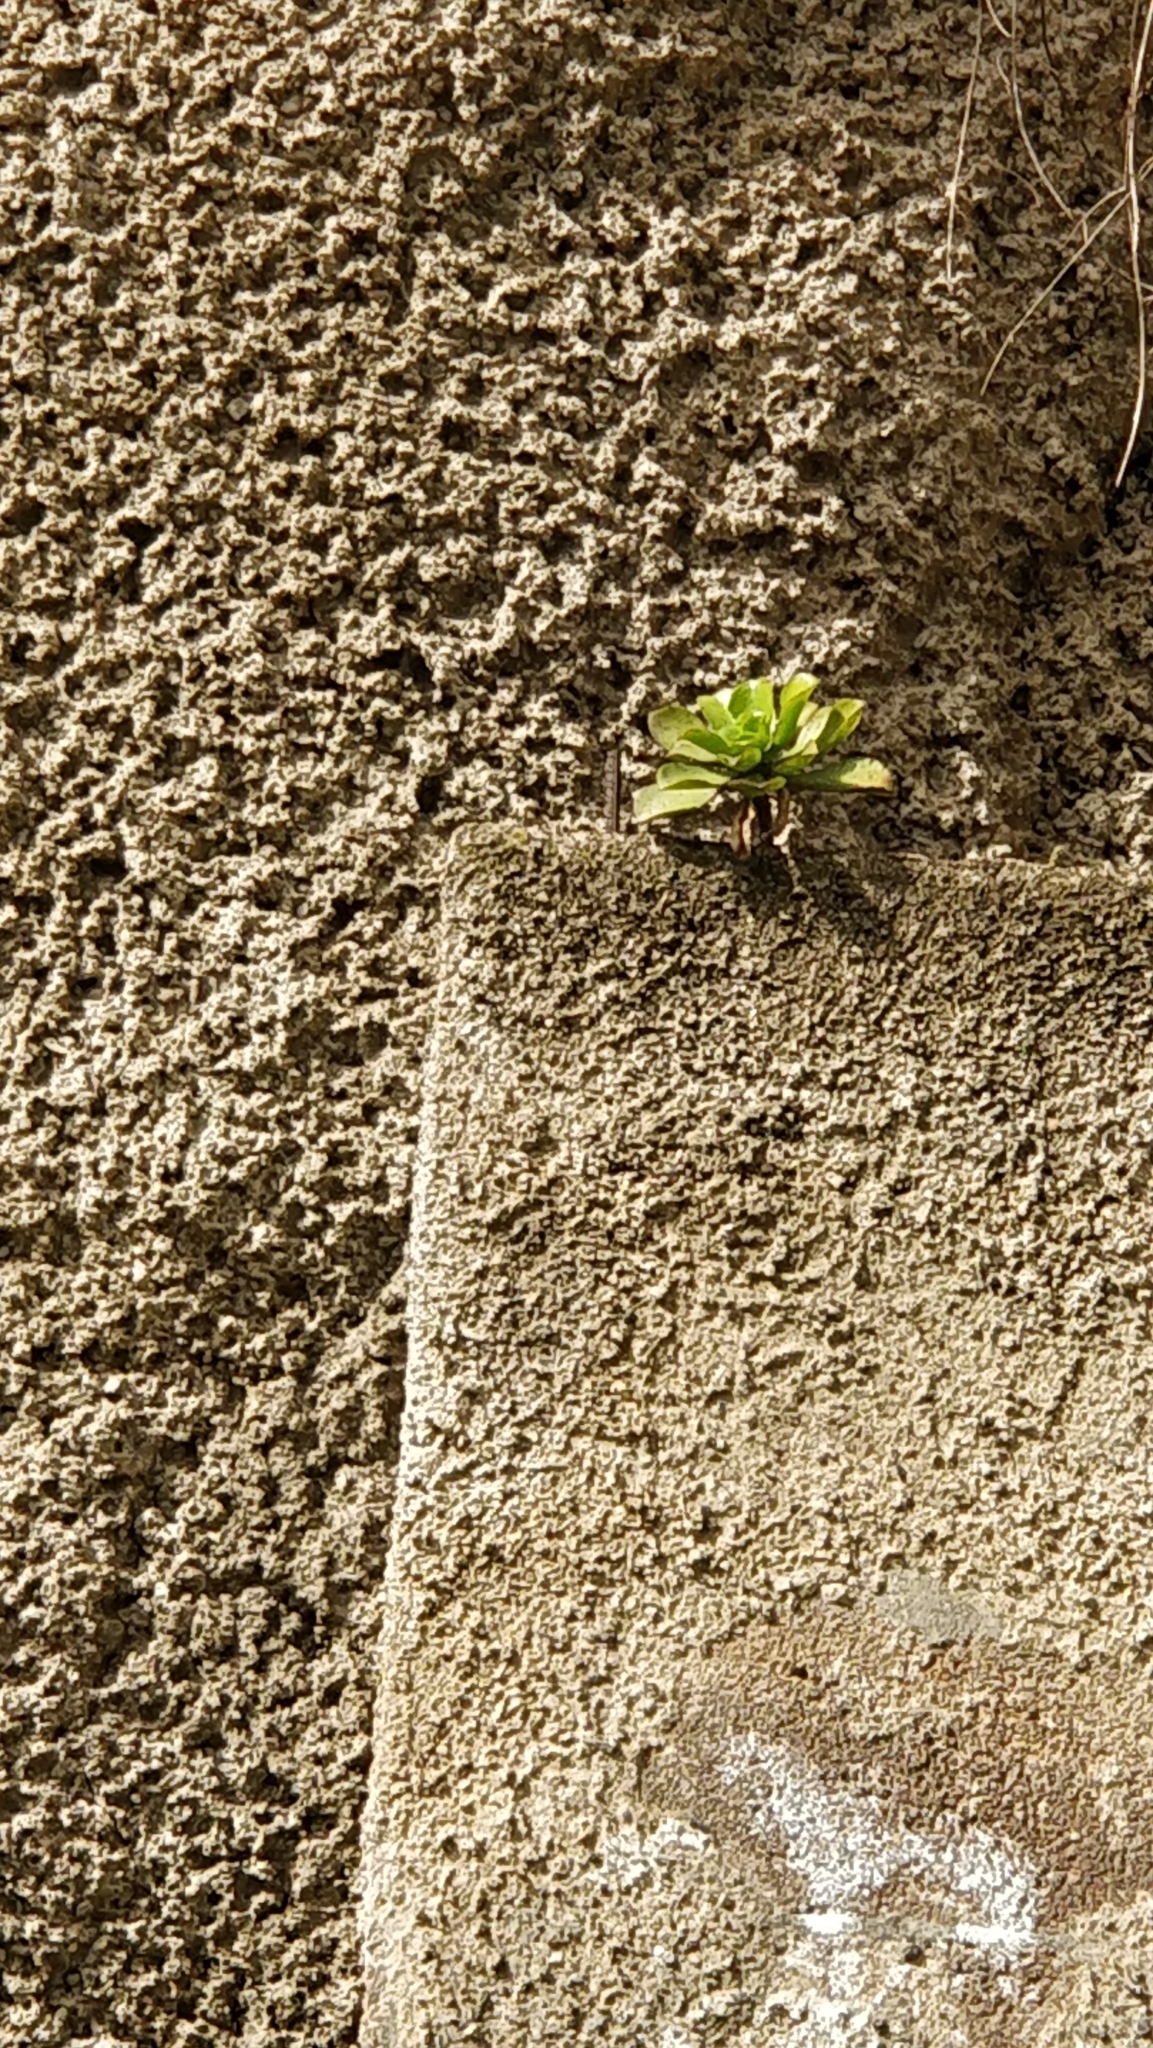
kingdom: Plantae
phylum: Tracheophyta
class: Magnoliopsida
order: Saxifragales
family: Crassulaceae
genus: Aeonium
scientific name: Aeonium glutinosum
